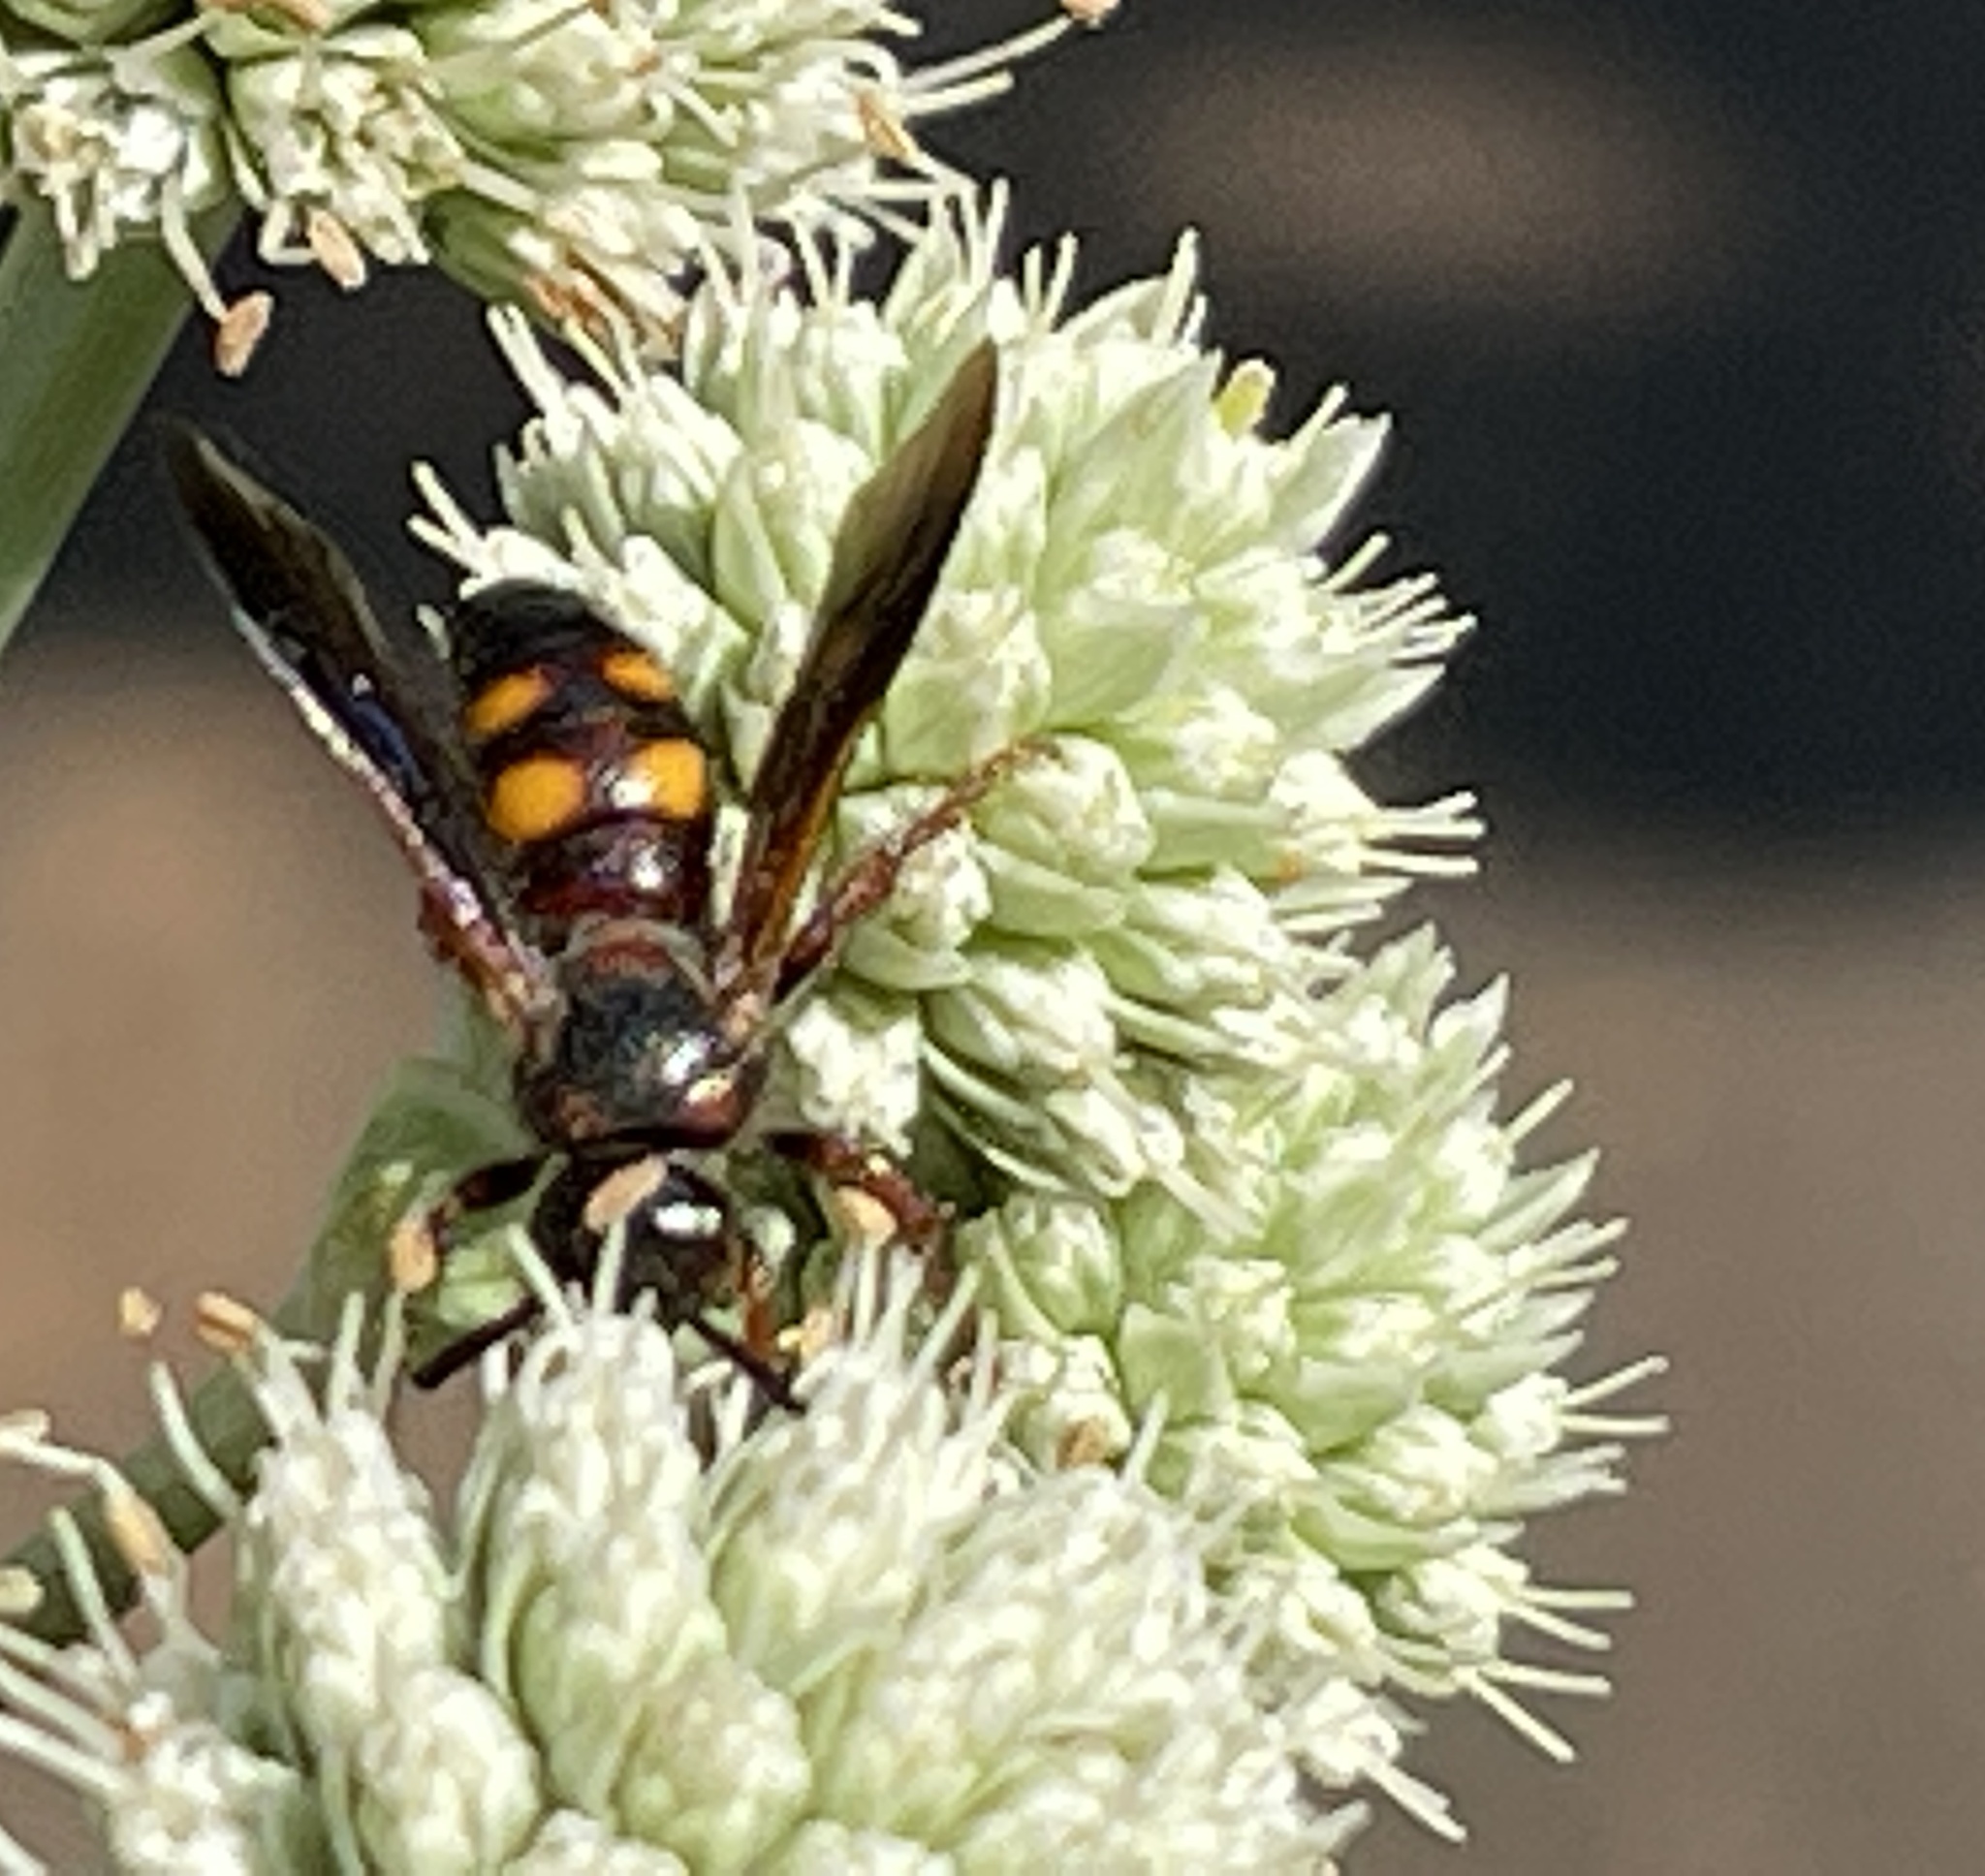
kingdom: Animalia
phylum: Arthropoda
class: Insecta
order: Hymenoptera
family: Scoliidae
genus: Scolia
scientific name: Scolia nobilitata
